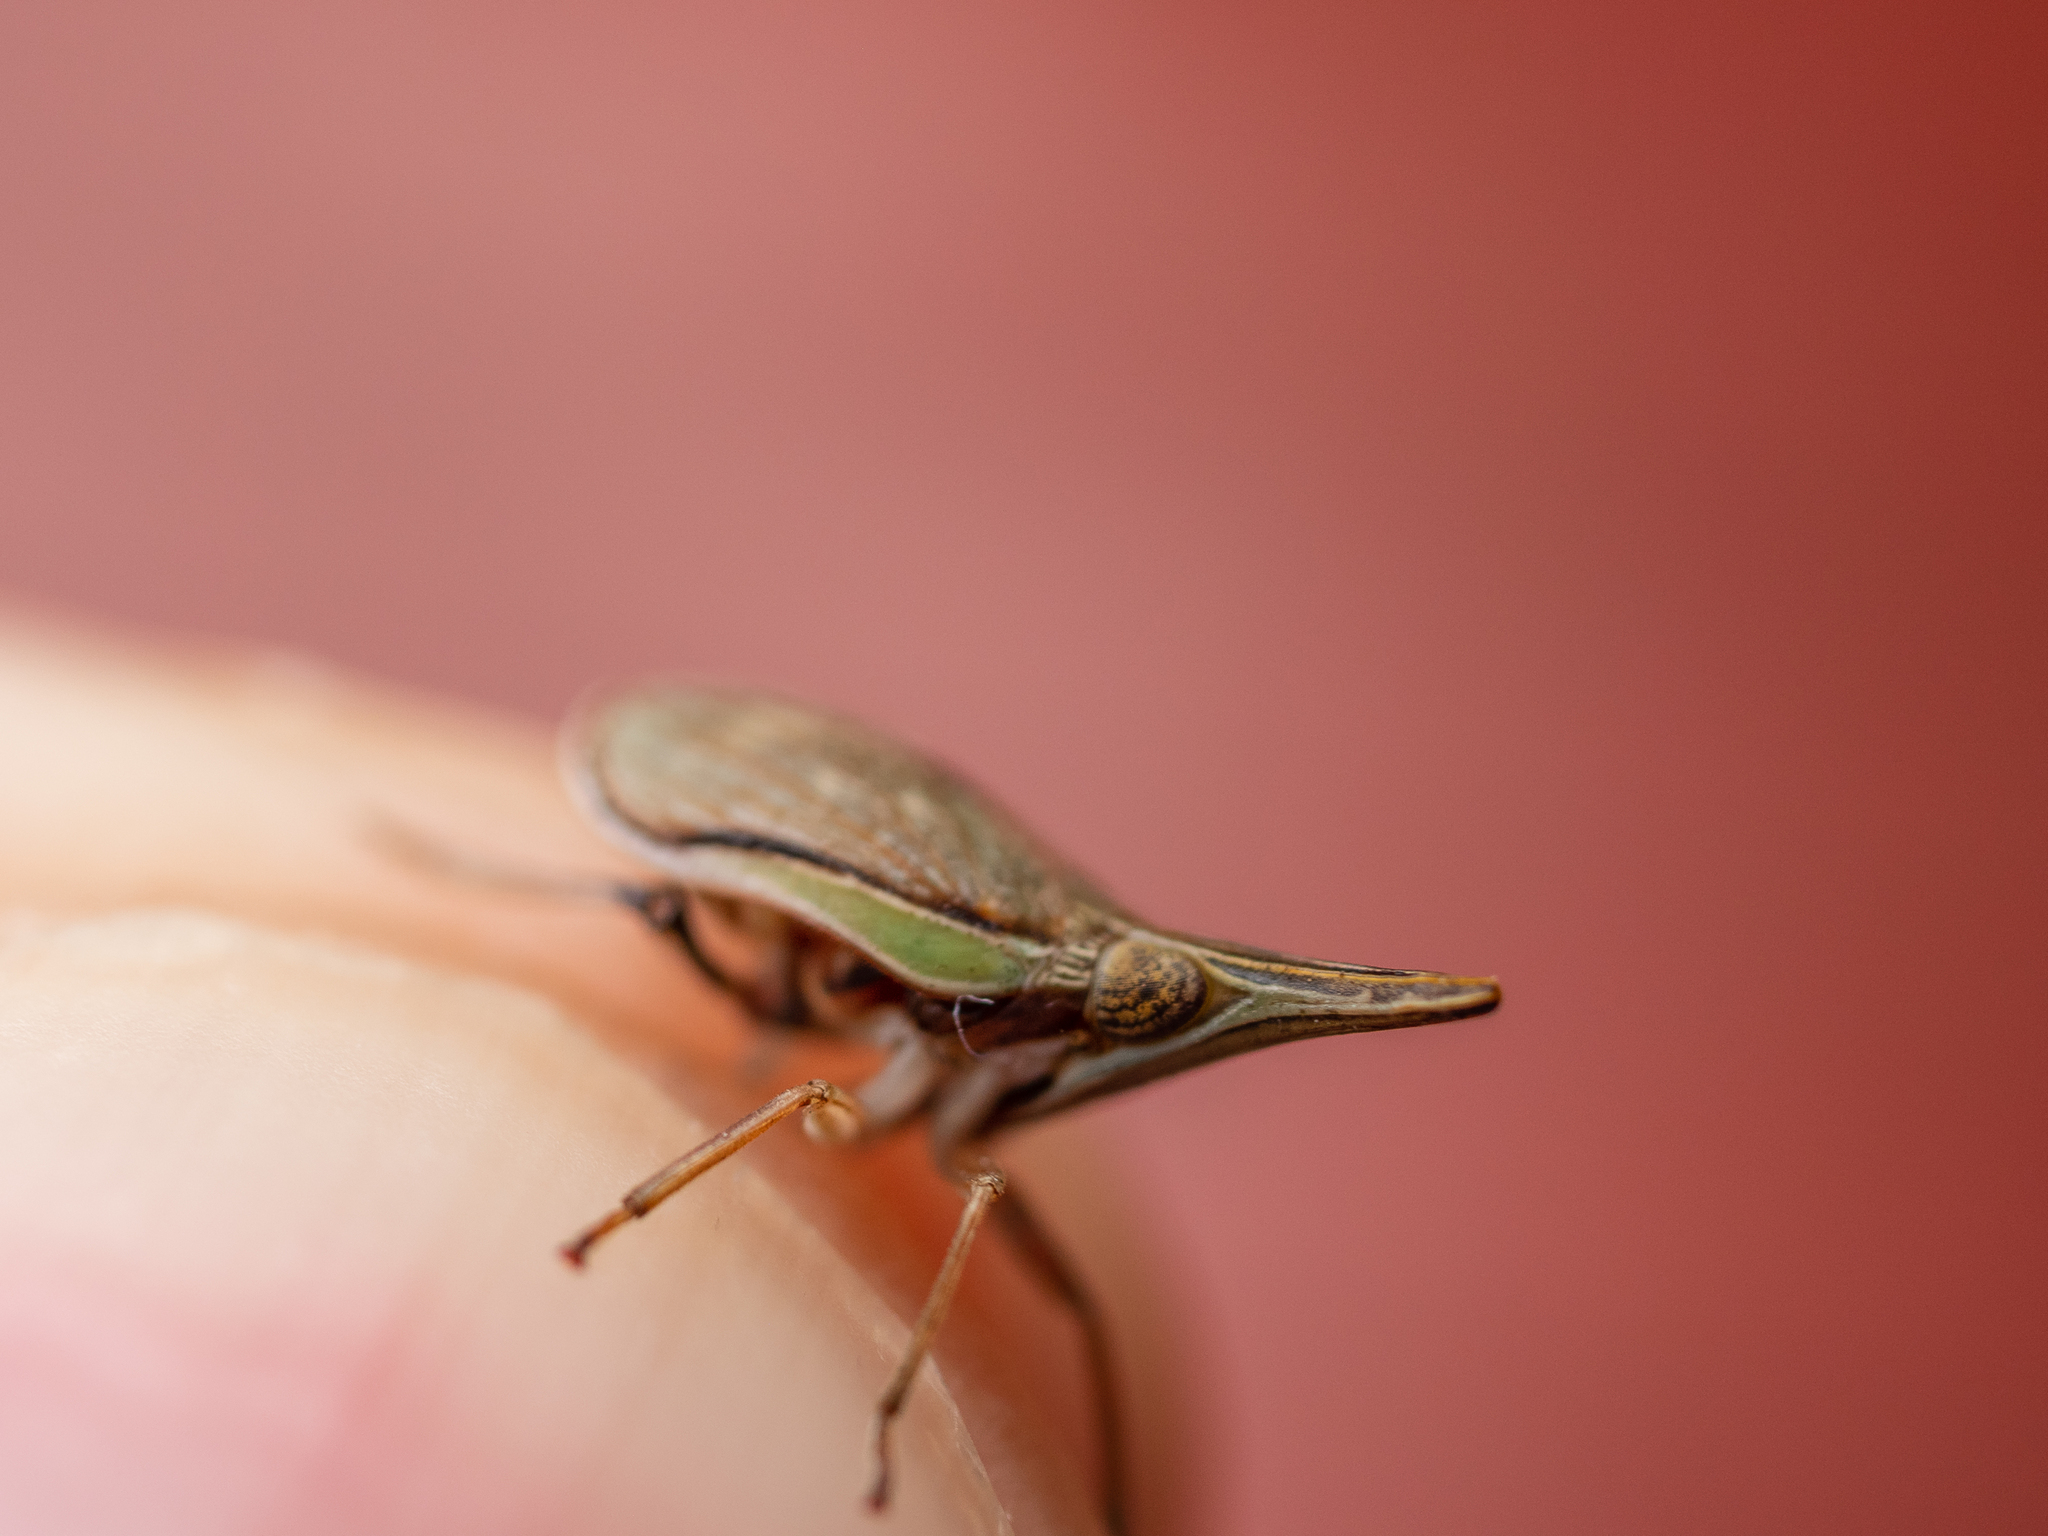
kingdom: Animalia
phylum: Arthropoda
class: Insecta
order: Hemiptera
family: Issidae
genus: Choutagus
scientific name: Choutagus longicephalus
